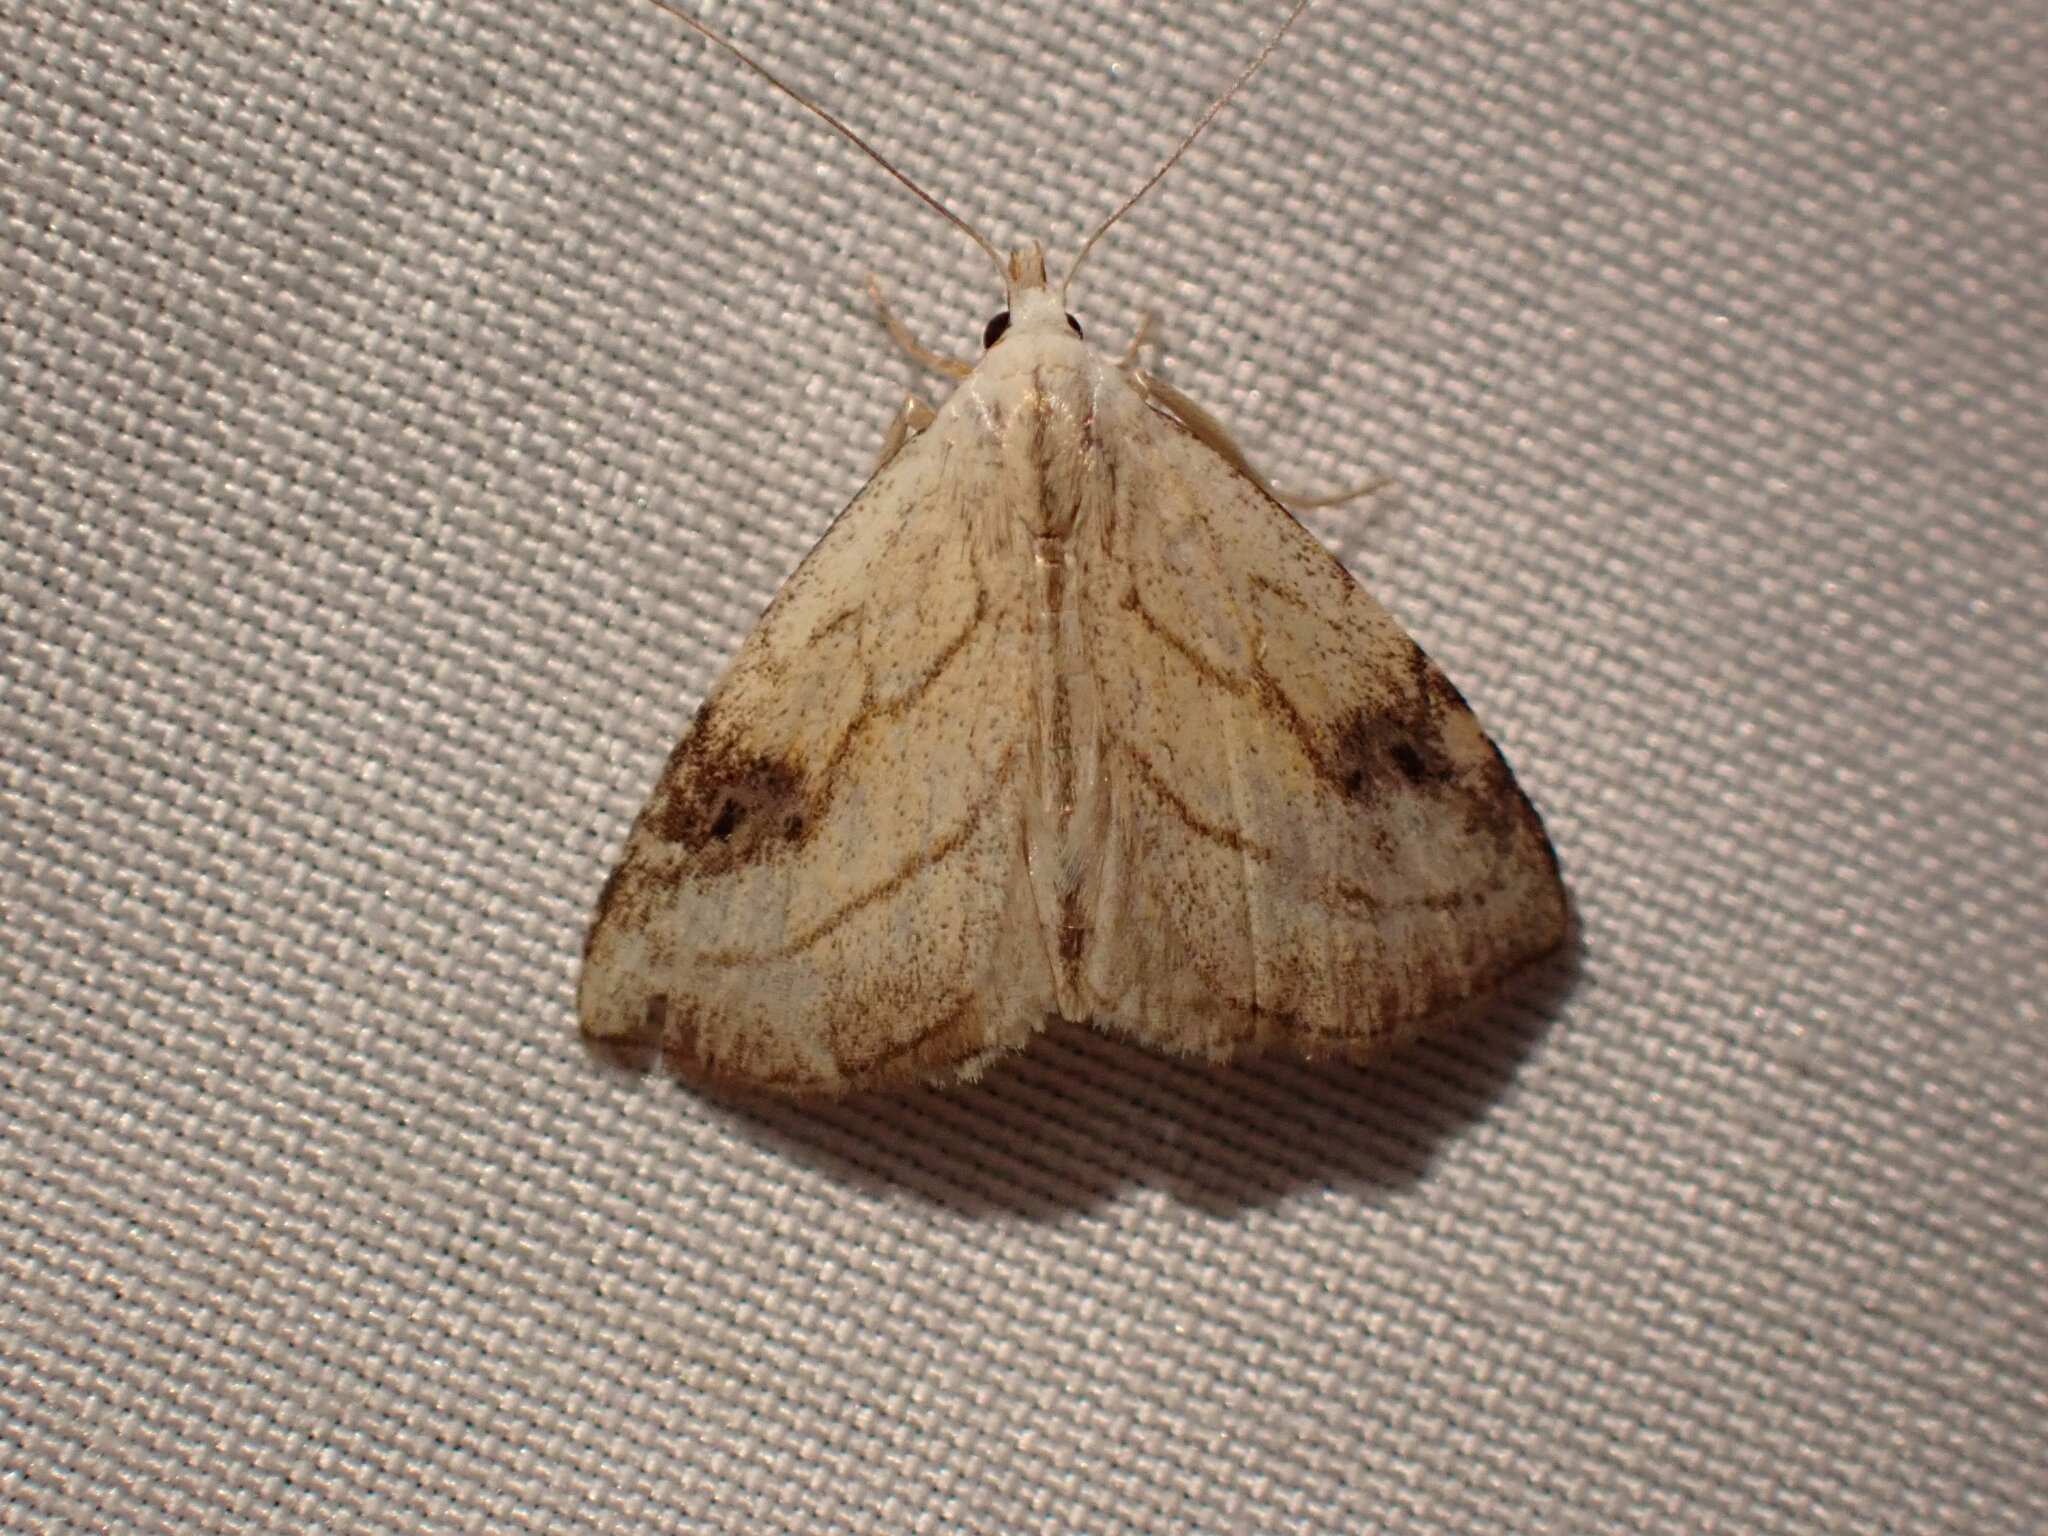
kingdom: Animalia
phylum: Arthropoda
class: Insecta
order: Lepidoptera
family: Erebidae
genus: Rivula
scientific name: Rivula propinqualis
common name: Spotted grass moth
